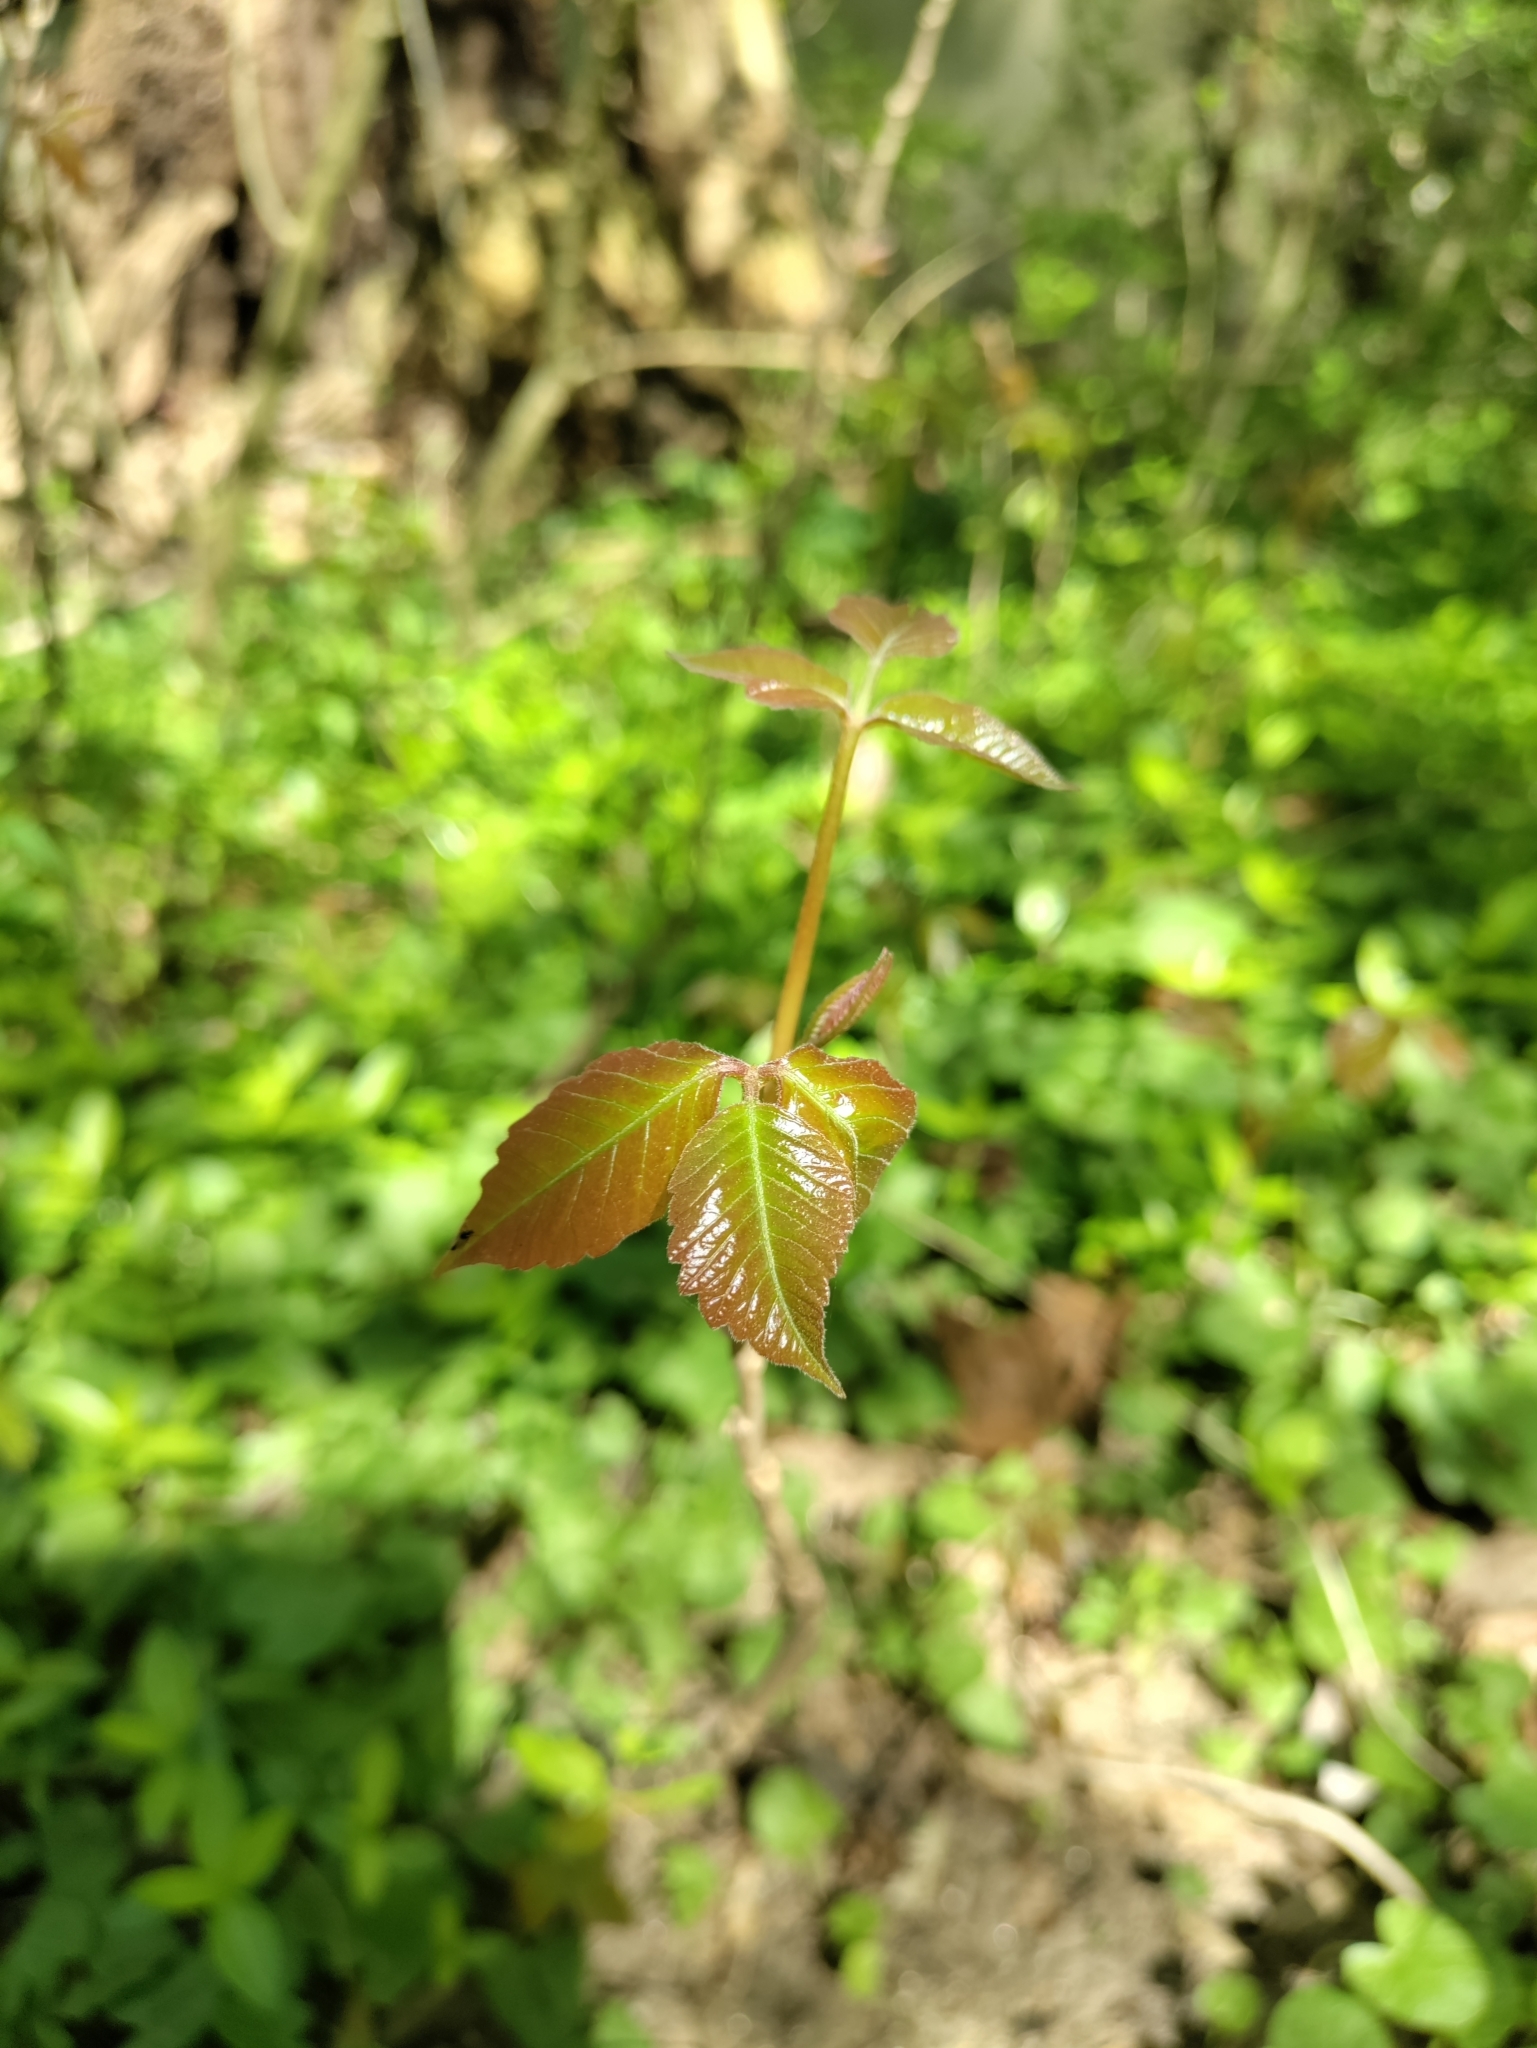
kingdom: Plantae
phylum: Tracheophyta
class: Magnoliopsida
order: Sapindales
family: Anacardiaceae
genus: Toxicodendron
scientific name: Toxicodendron radicans
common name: Poison ivy
